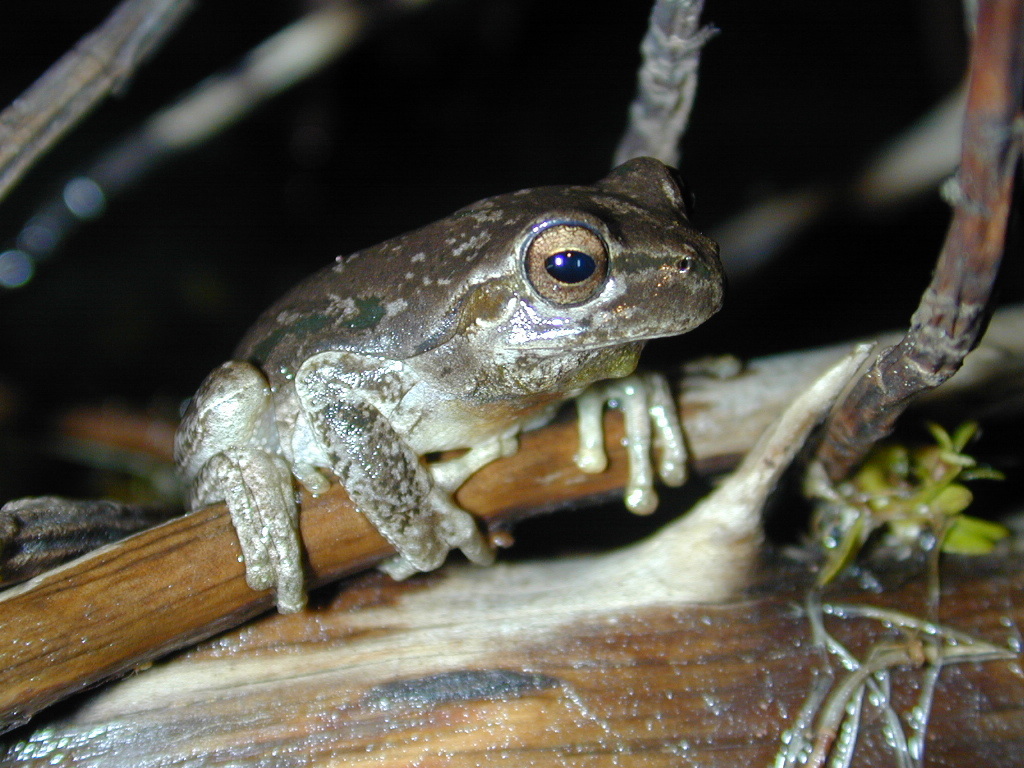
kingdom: Animalia
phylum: Chordata
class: Amphibia
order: Anura
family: Hylidae
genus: Hyla
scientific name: Hyla sarda
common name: Sardinian tree frog
